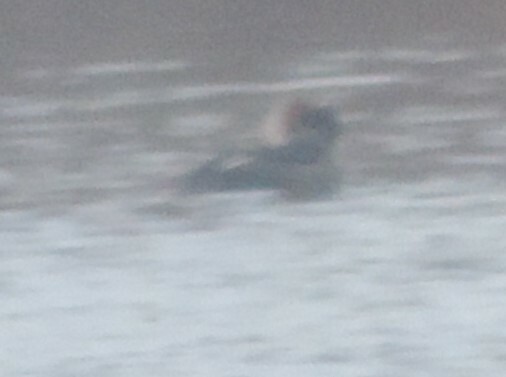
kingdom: Animalia
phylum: Chordata
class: Aves
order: Anseriformes
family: Anatidae
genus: Lophodytes
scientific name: Lophodytes cucullatus
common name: Hooded merganser
